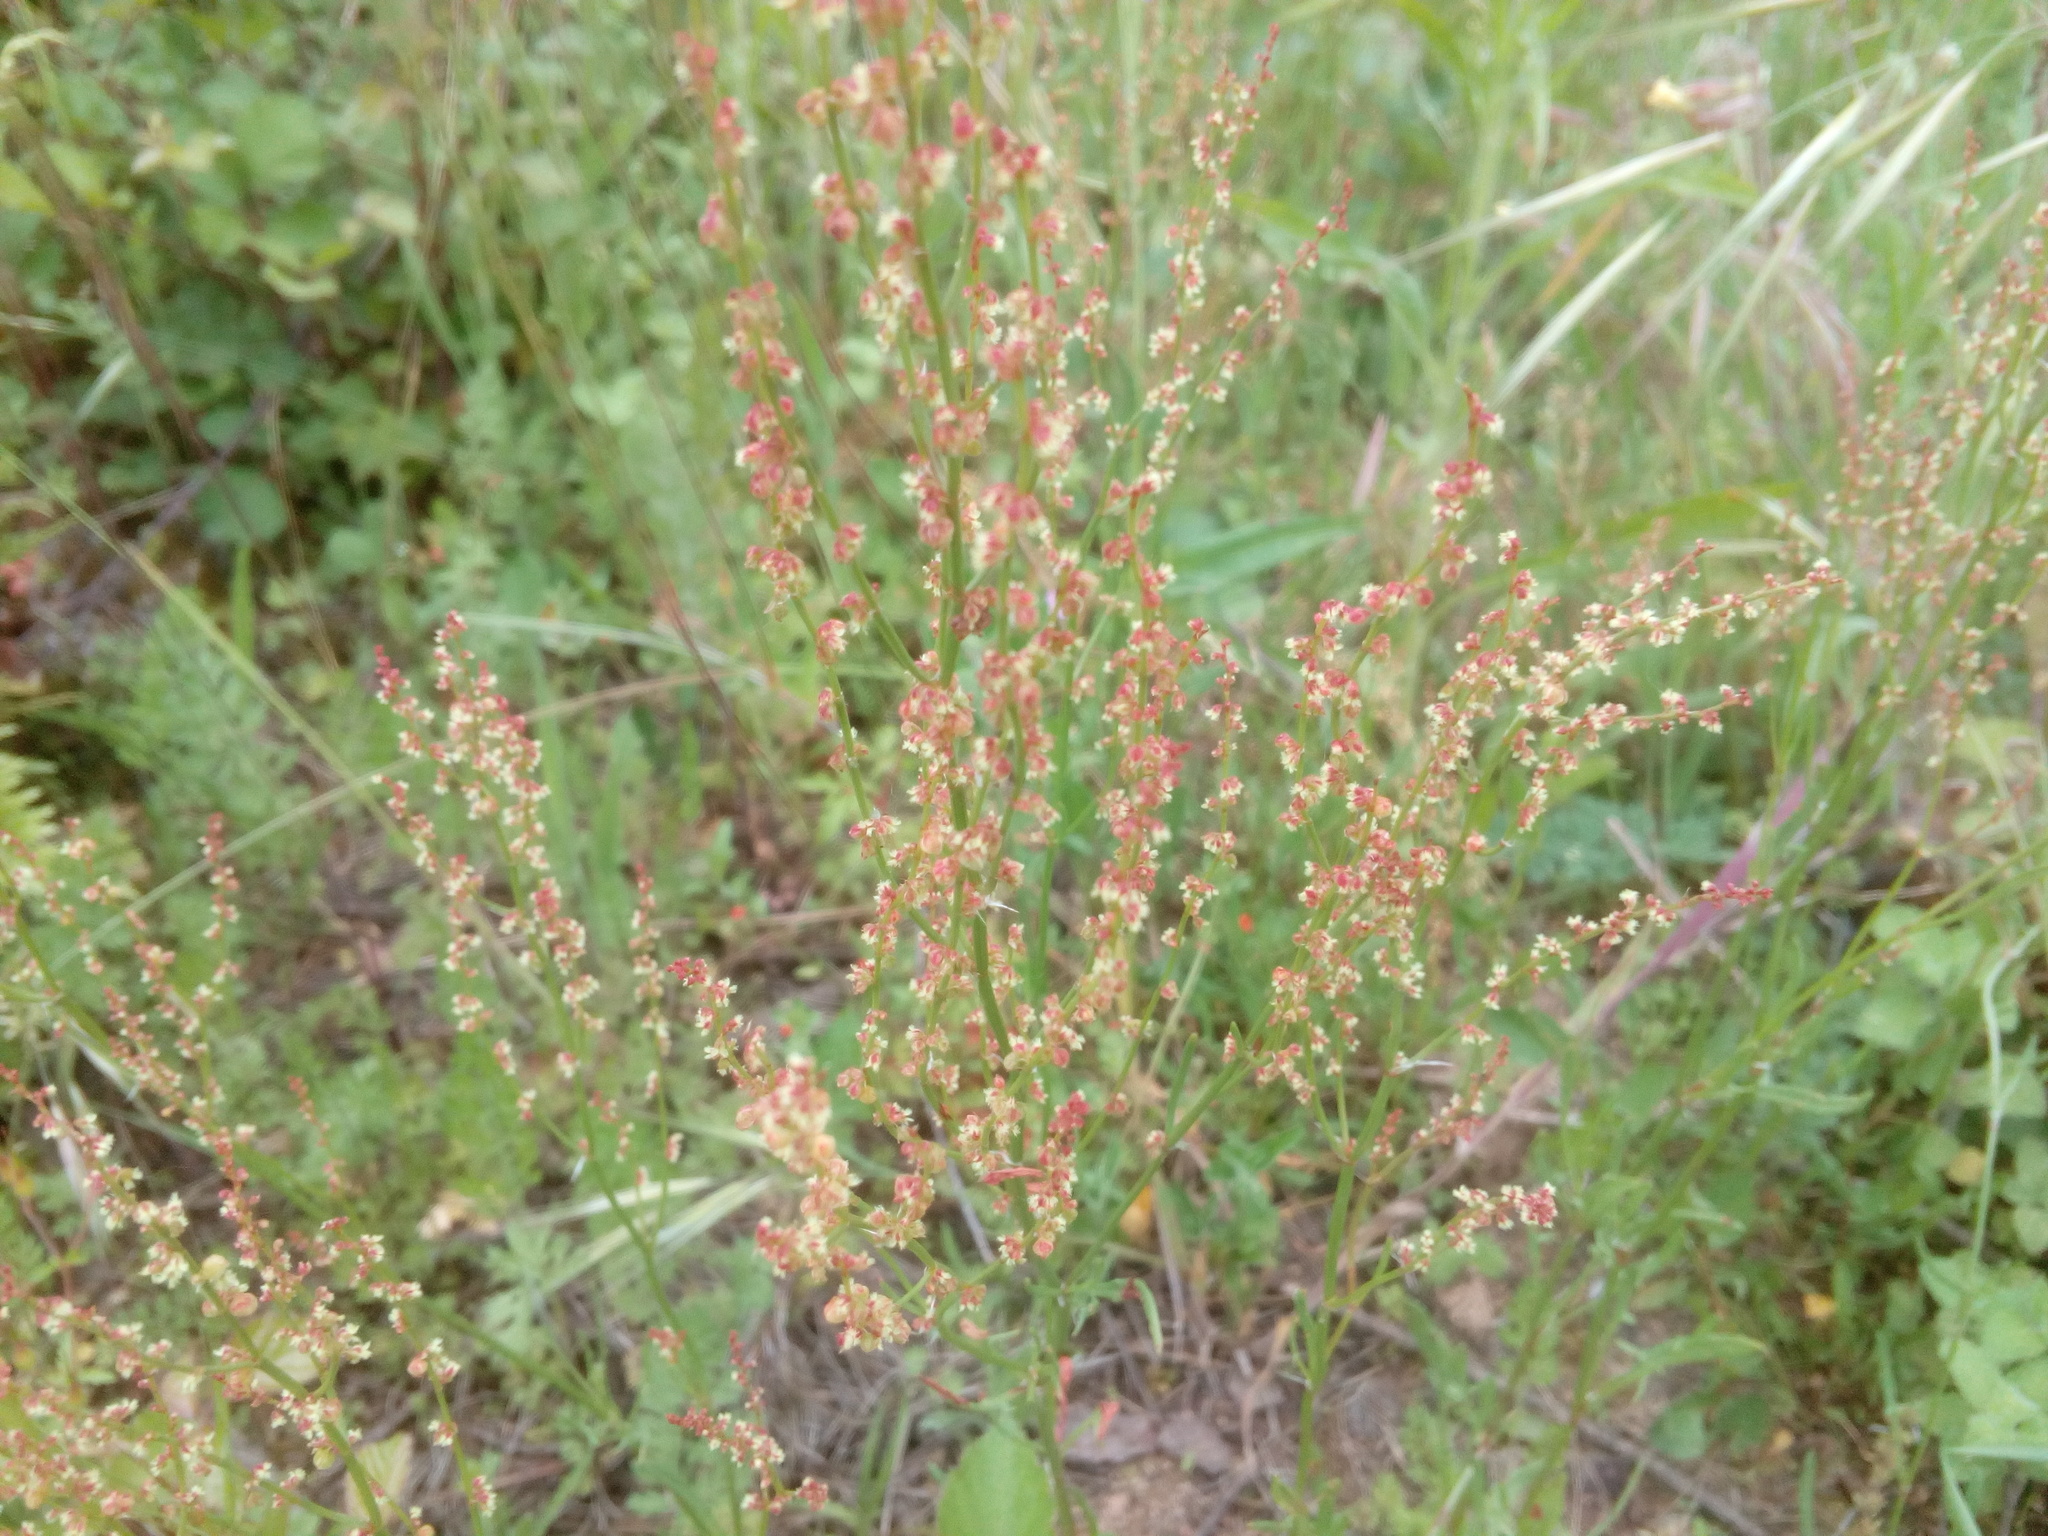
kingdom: Plantae
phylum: Tracheophyta
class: Magnoliopsida
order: Caryophyllales
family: Polygonaceae
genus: Rumex
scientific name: Rumex acetosella
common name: Common sheep sorrel
